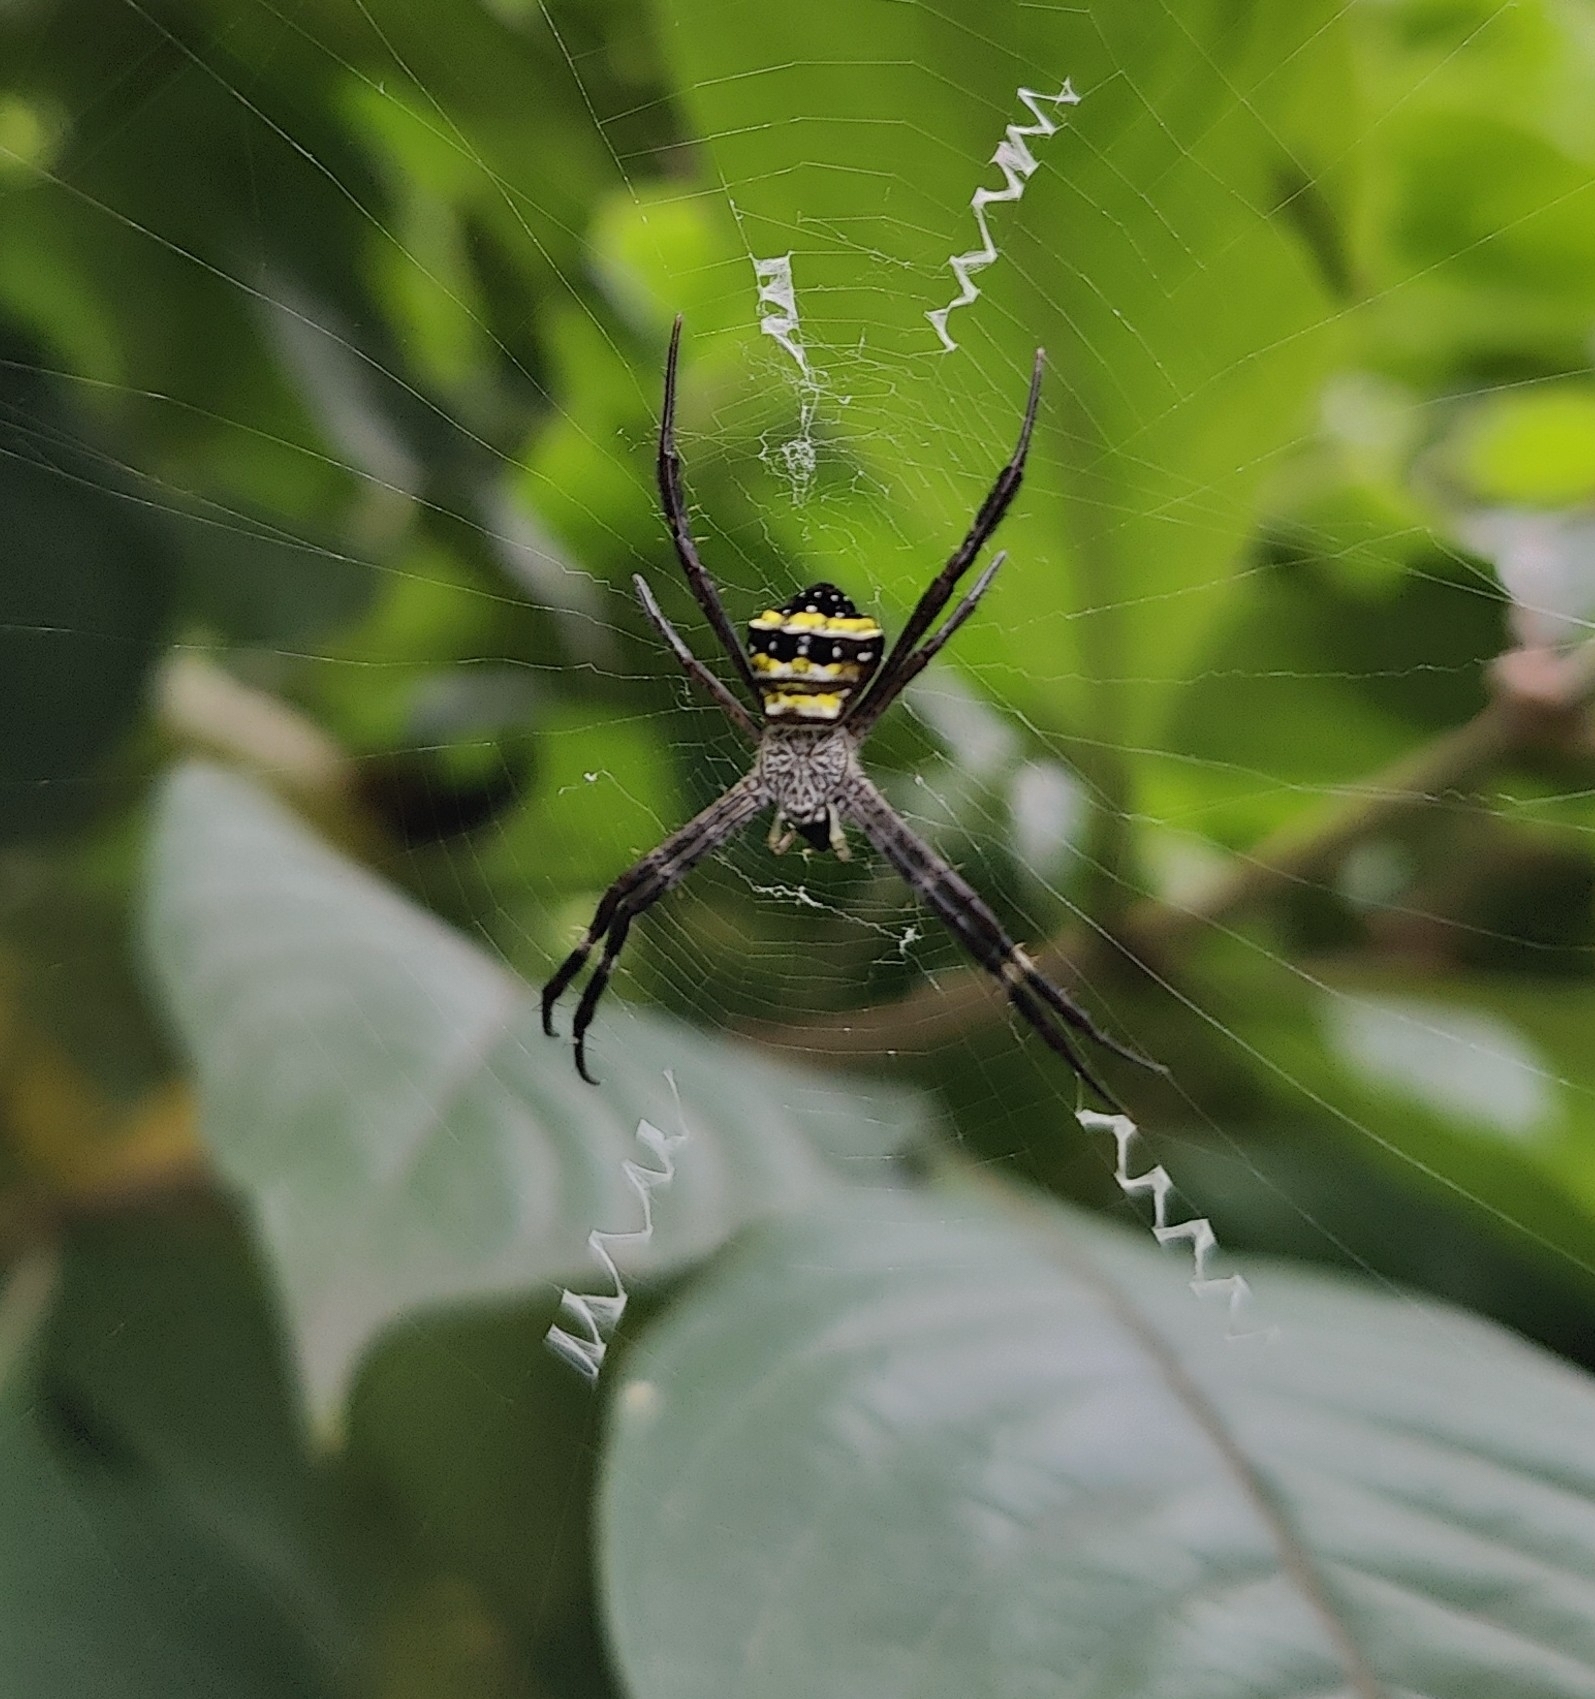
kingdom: Animalia
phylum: Arthropoda
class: Arachnida
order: Araneae
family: Araneidae
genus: Argiope
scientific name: Argiope
